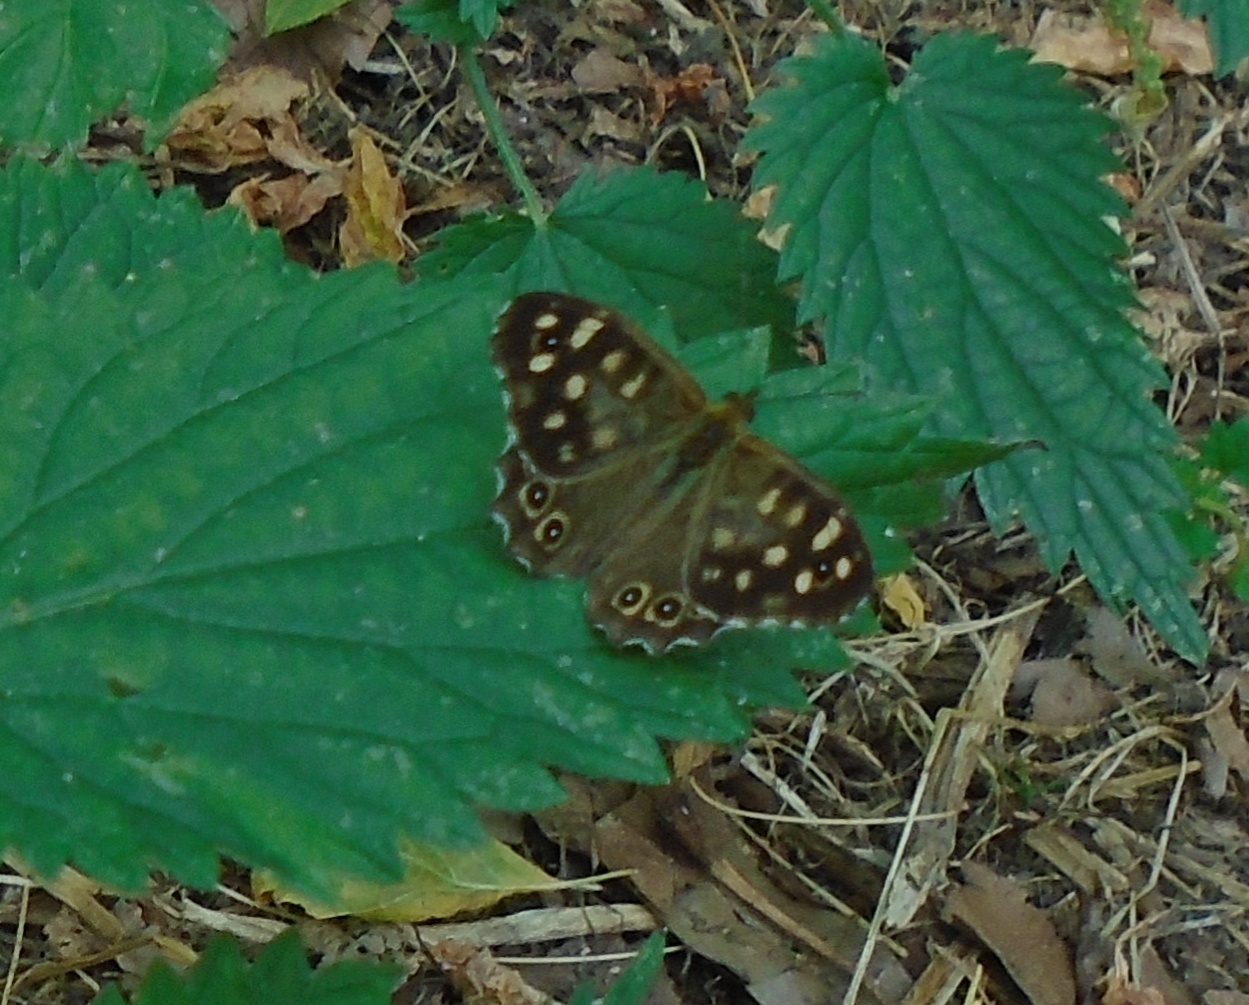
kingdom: Animalia
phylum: Arthropoda
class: Insecta
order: Lepidoptera
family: Nymphalidae
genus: Pararge
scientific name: Pararge aegeria
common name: Speckled wood
